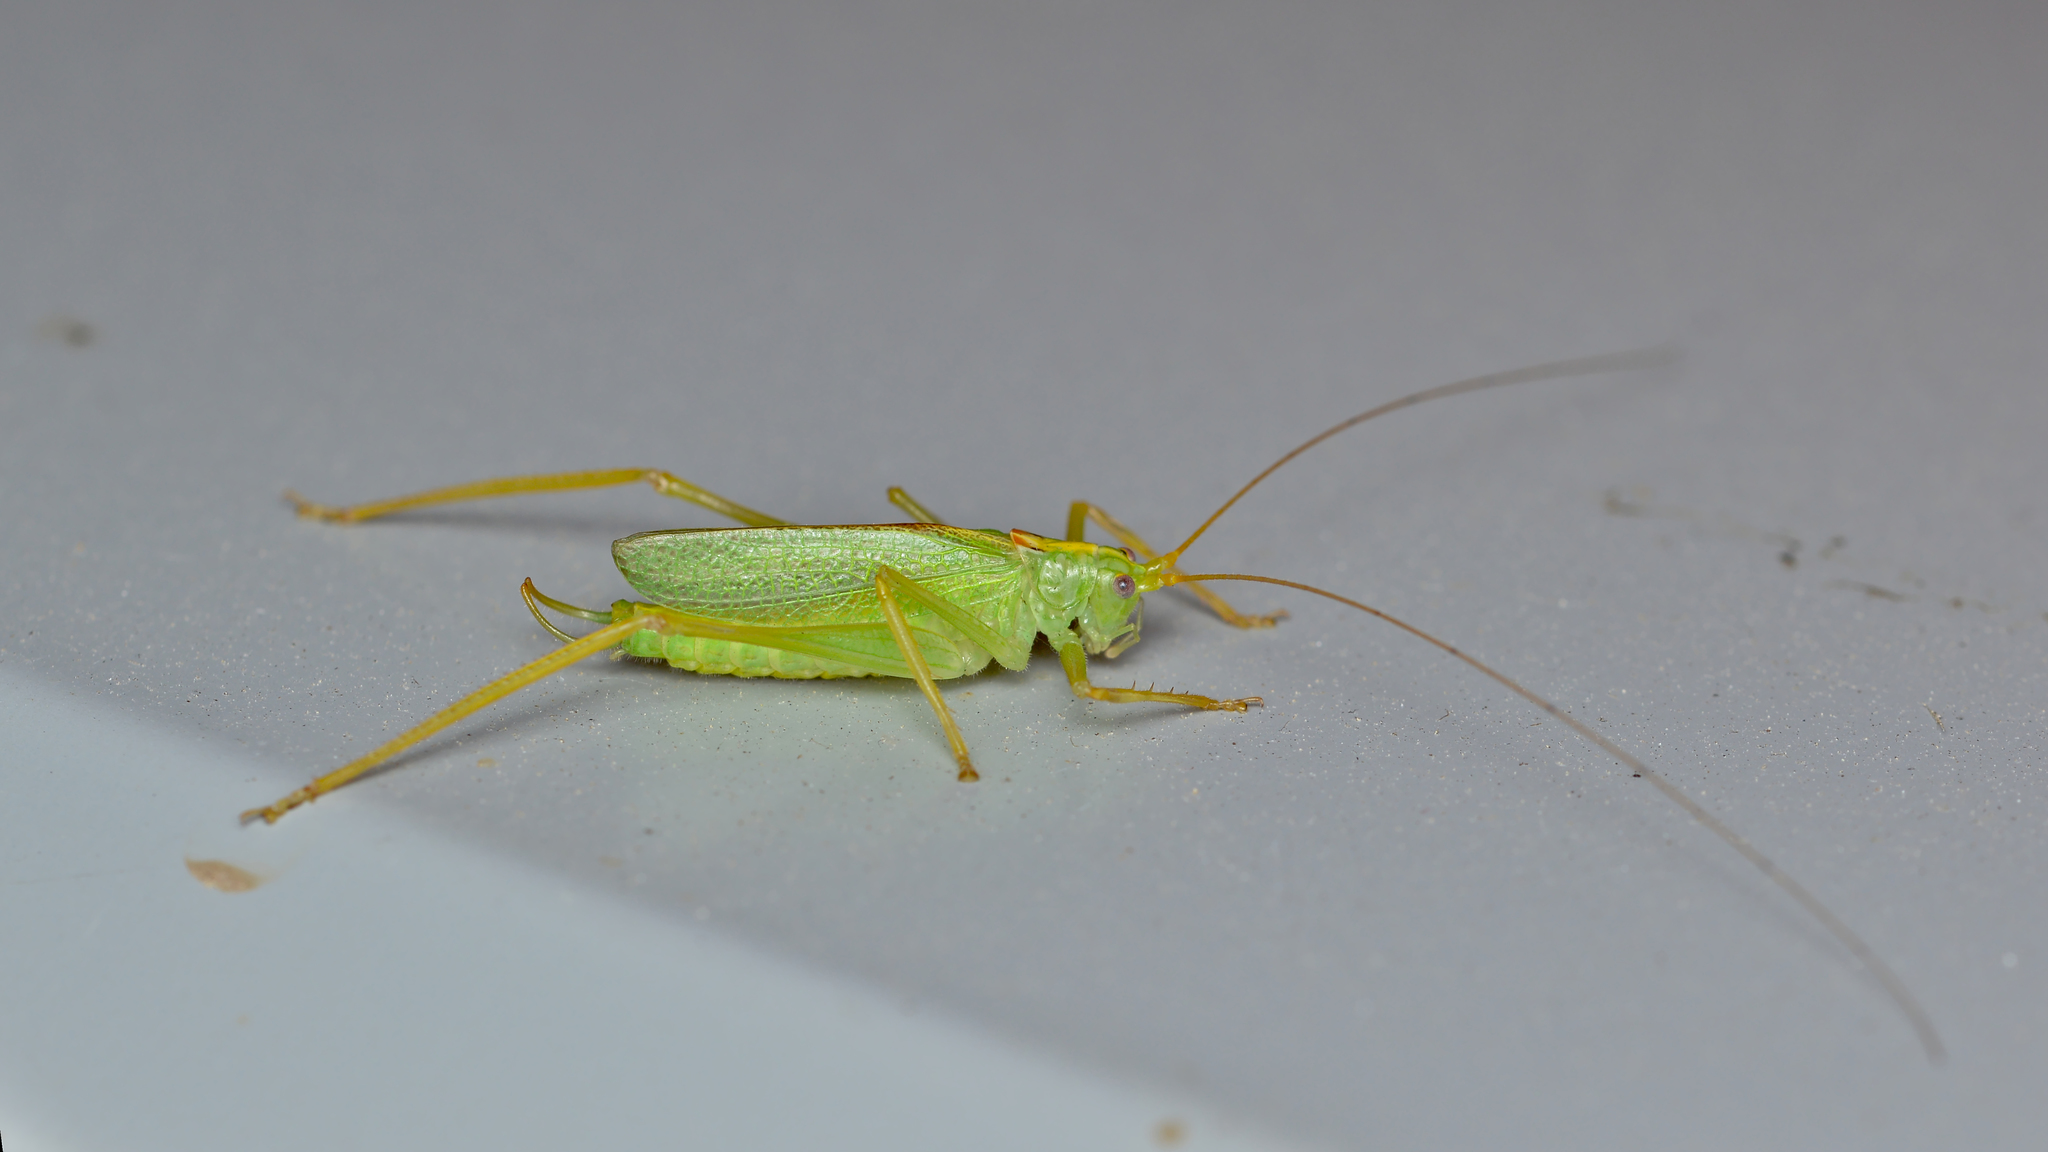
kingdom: Animalia
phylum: Arthropoda
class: Insecta
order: Orthoptera
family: Tettigoniidae
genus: Meconema
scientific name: Meconema thalassinum
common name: Oak bush-cricket
